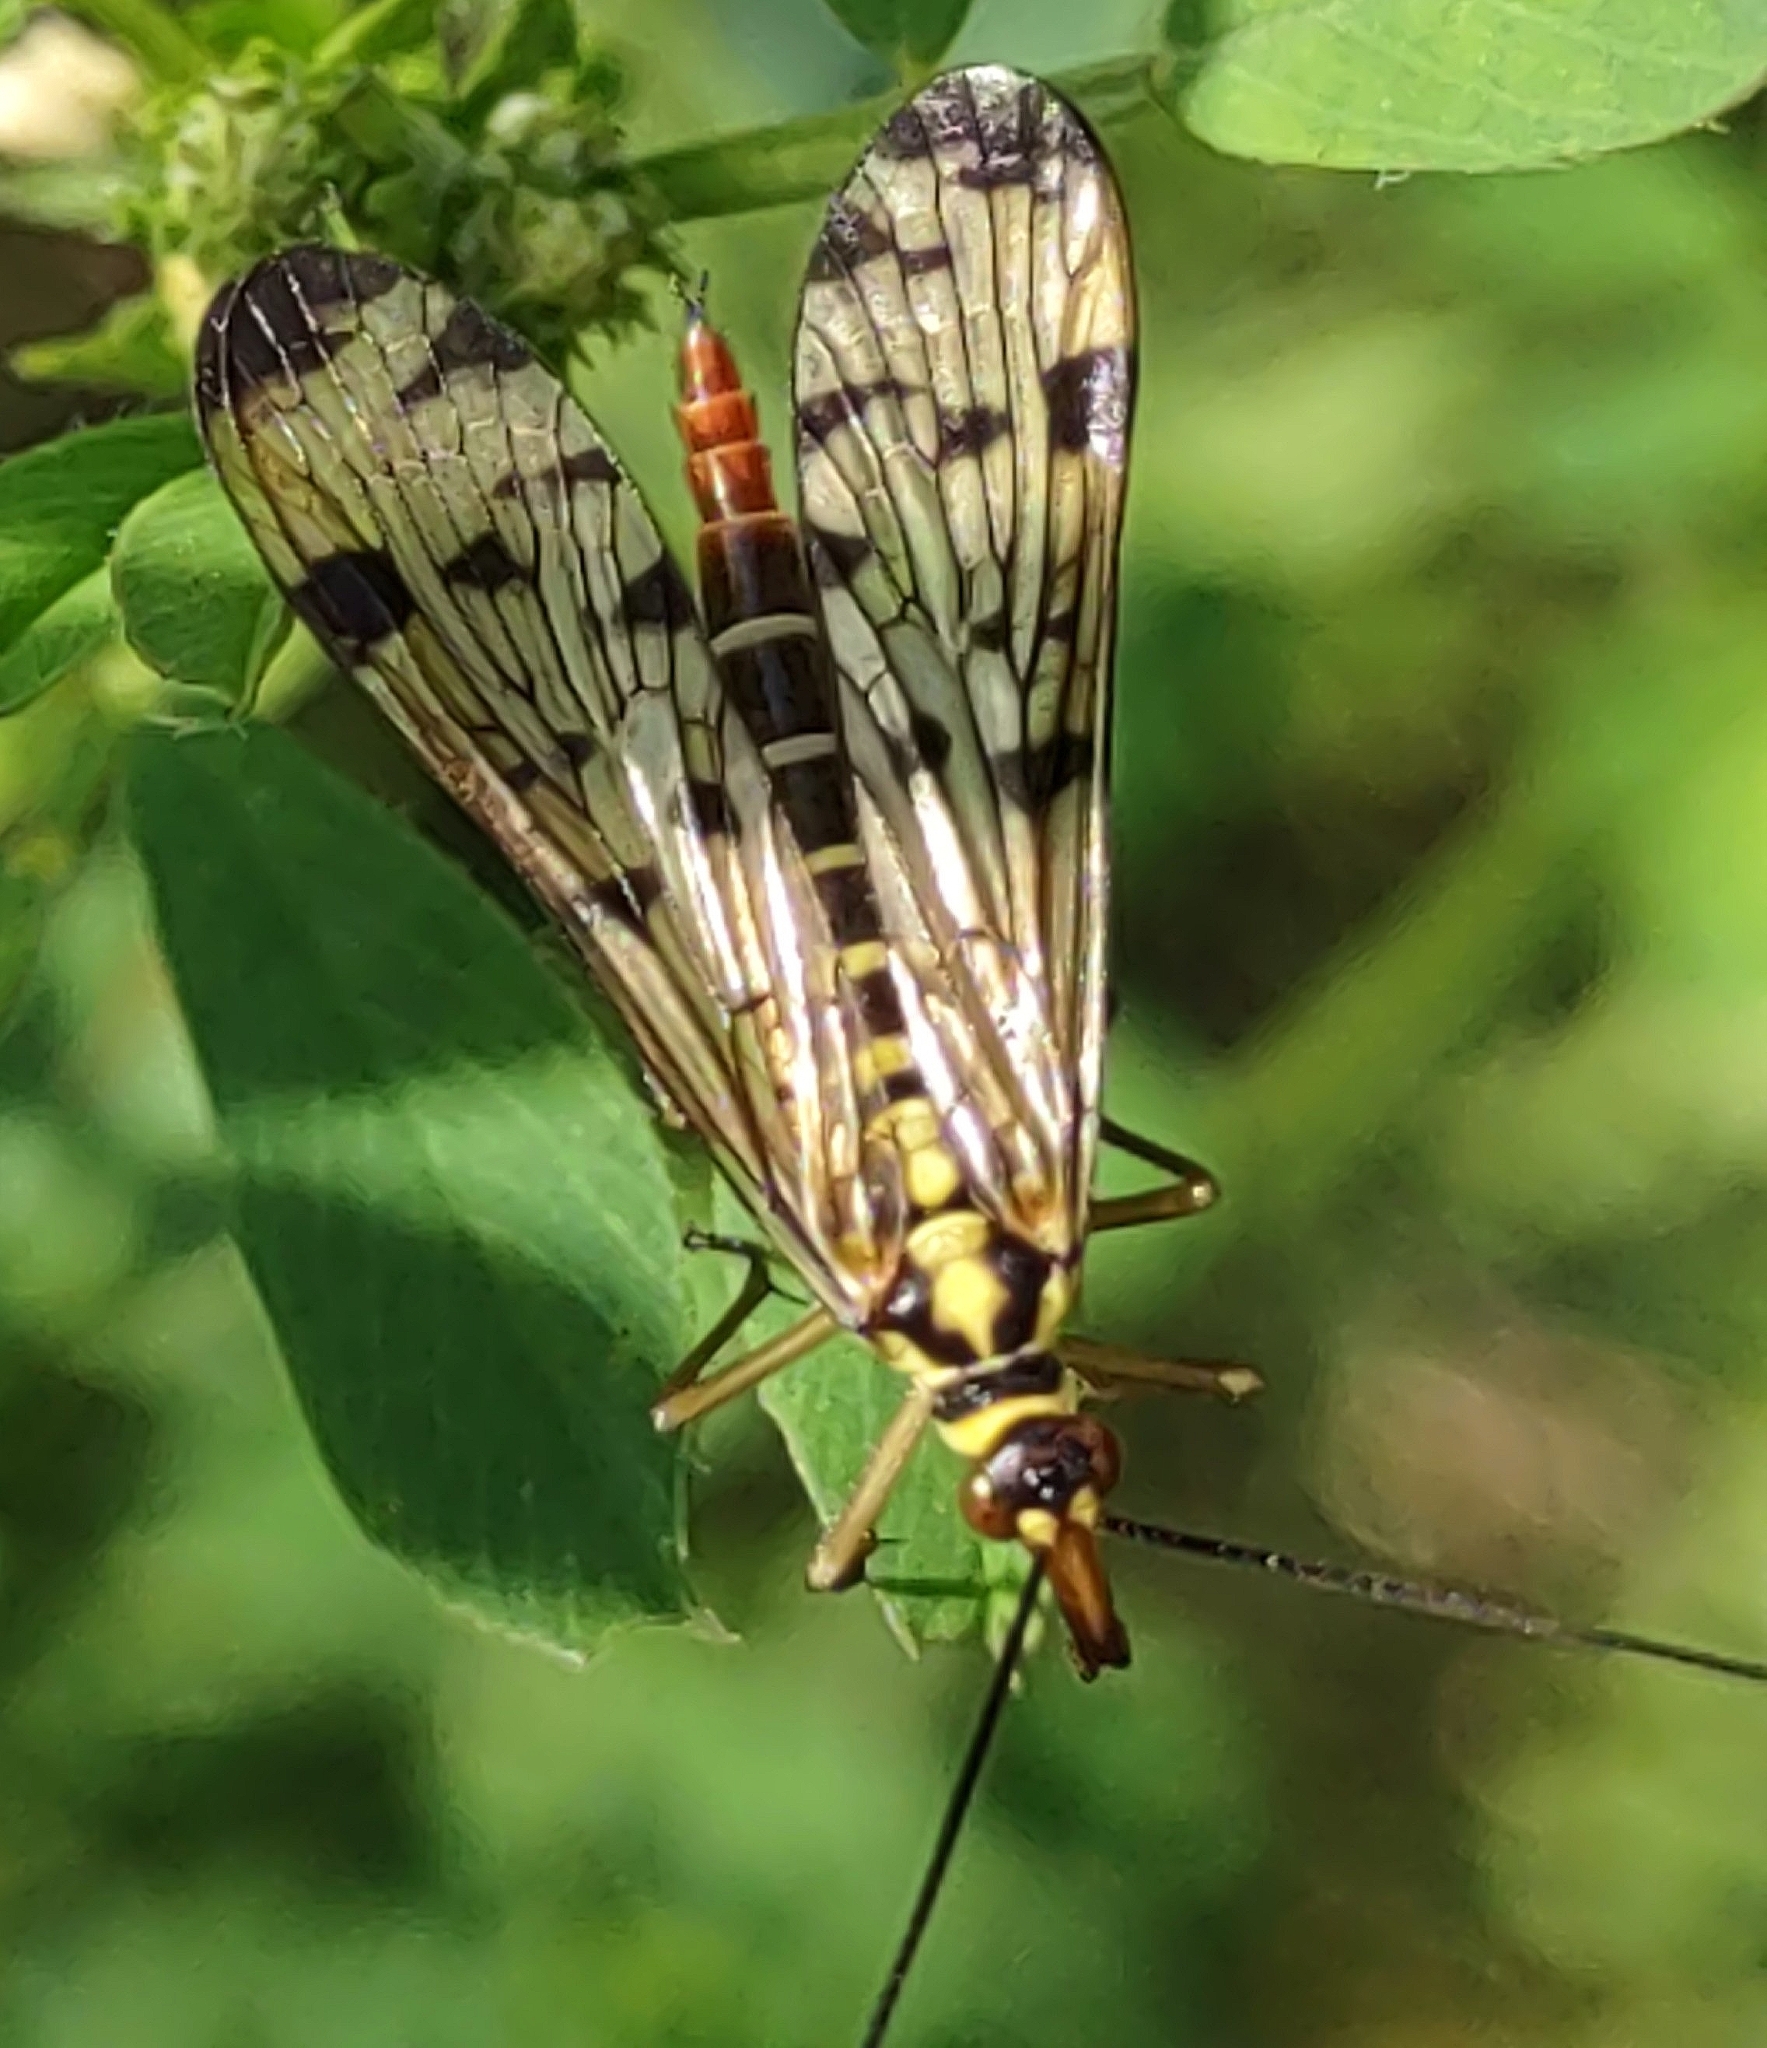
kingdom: Animalia
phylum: Arthropoda
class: Insecta
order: Mecoptera
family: Panorpidae
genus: Panorpa
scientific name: Panorpa germanica
